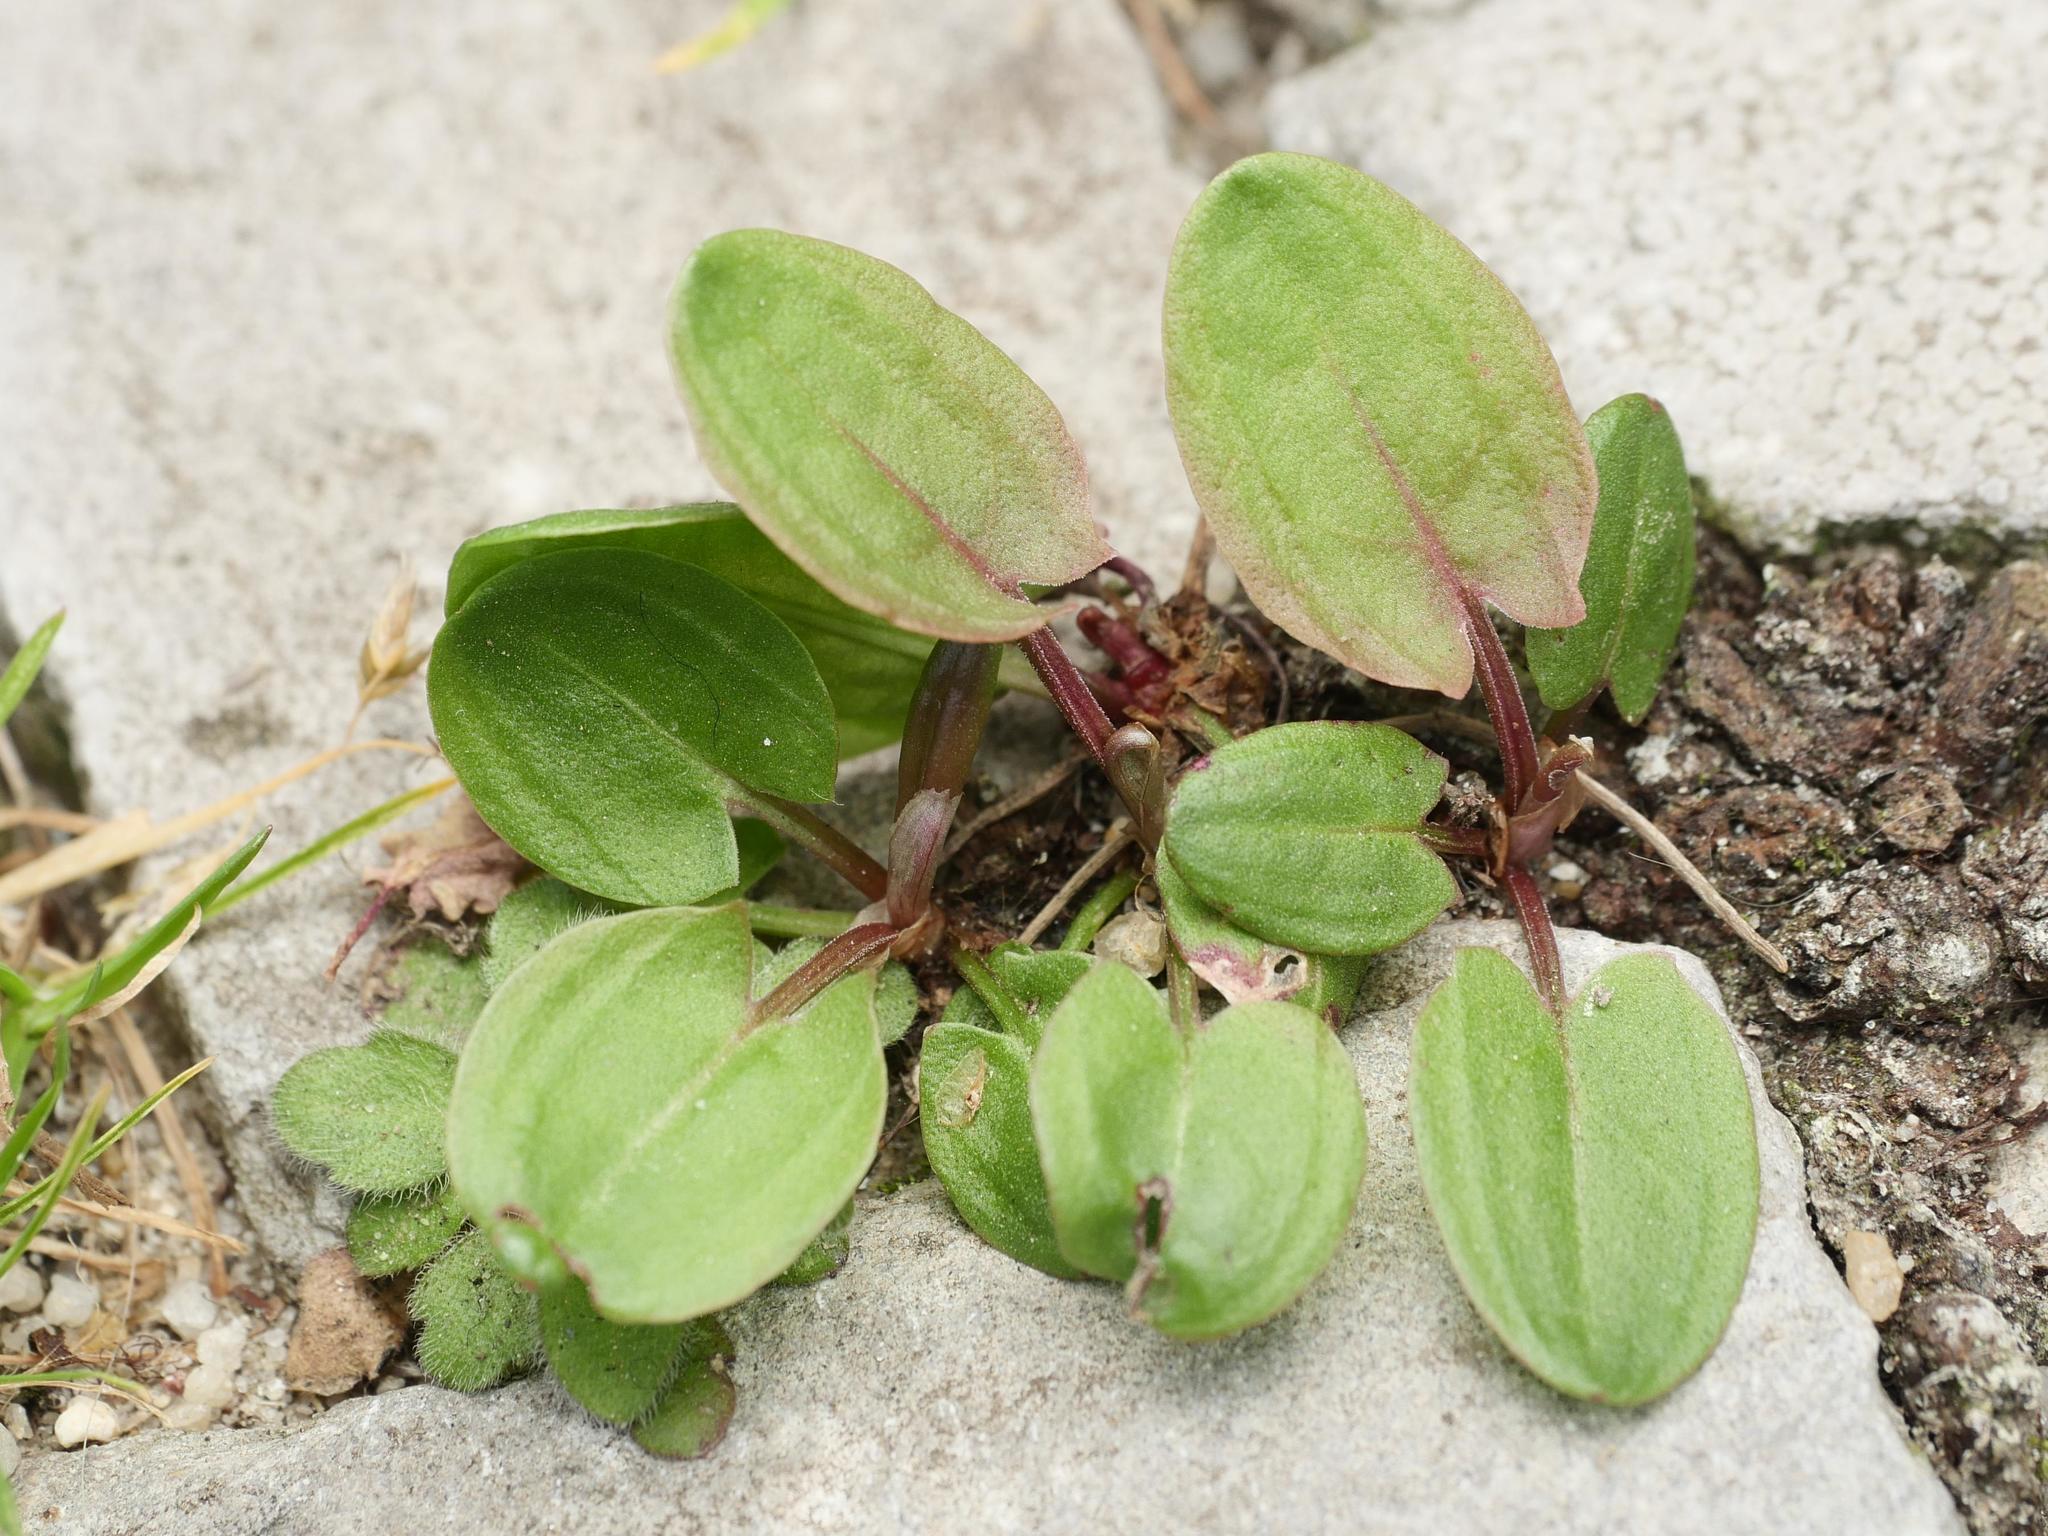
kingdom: Plantae
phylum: Tracheophyta
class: Magnoliopsida
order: Caryophyllales
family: Polygonaceae
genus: Rumex
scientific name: Rumex acetosa
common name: Garden sorrel
